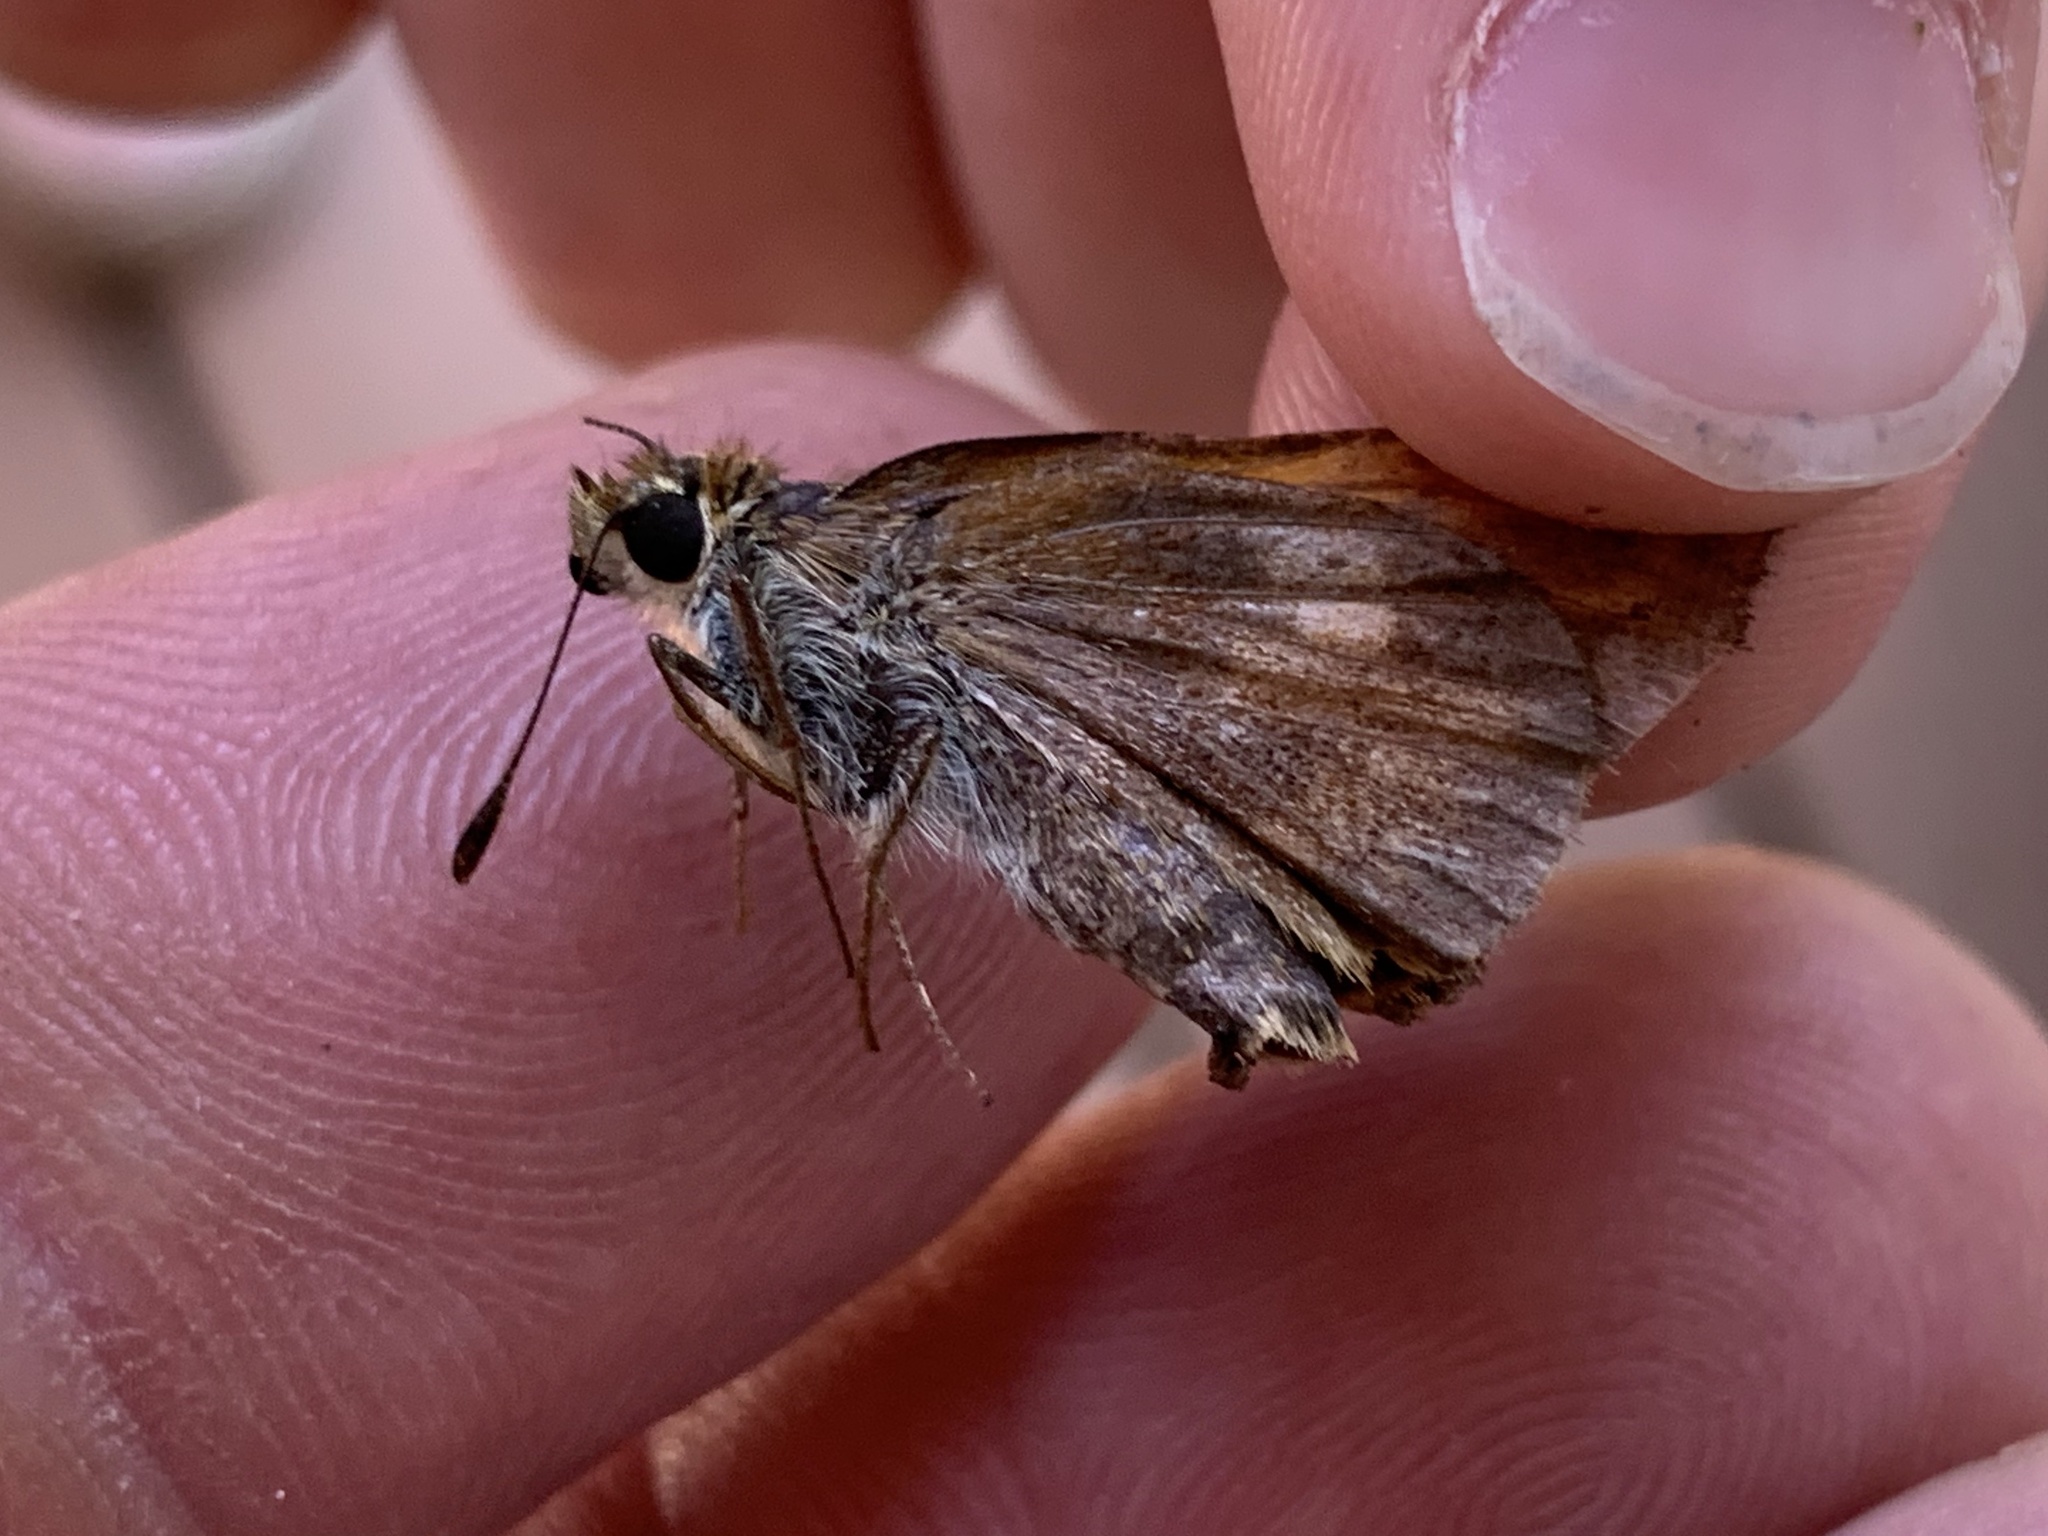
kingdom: Animalia
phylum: Arthropoda
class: Insecta
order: Lepidoptera
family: Hesperiidae
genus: Lon
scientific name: Lon taxiles
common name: Taxiles skipper
